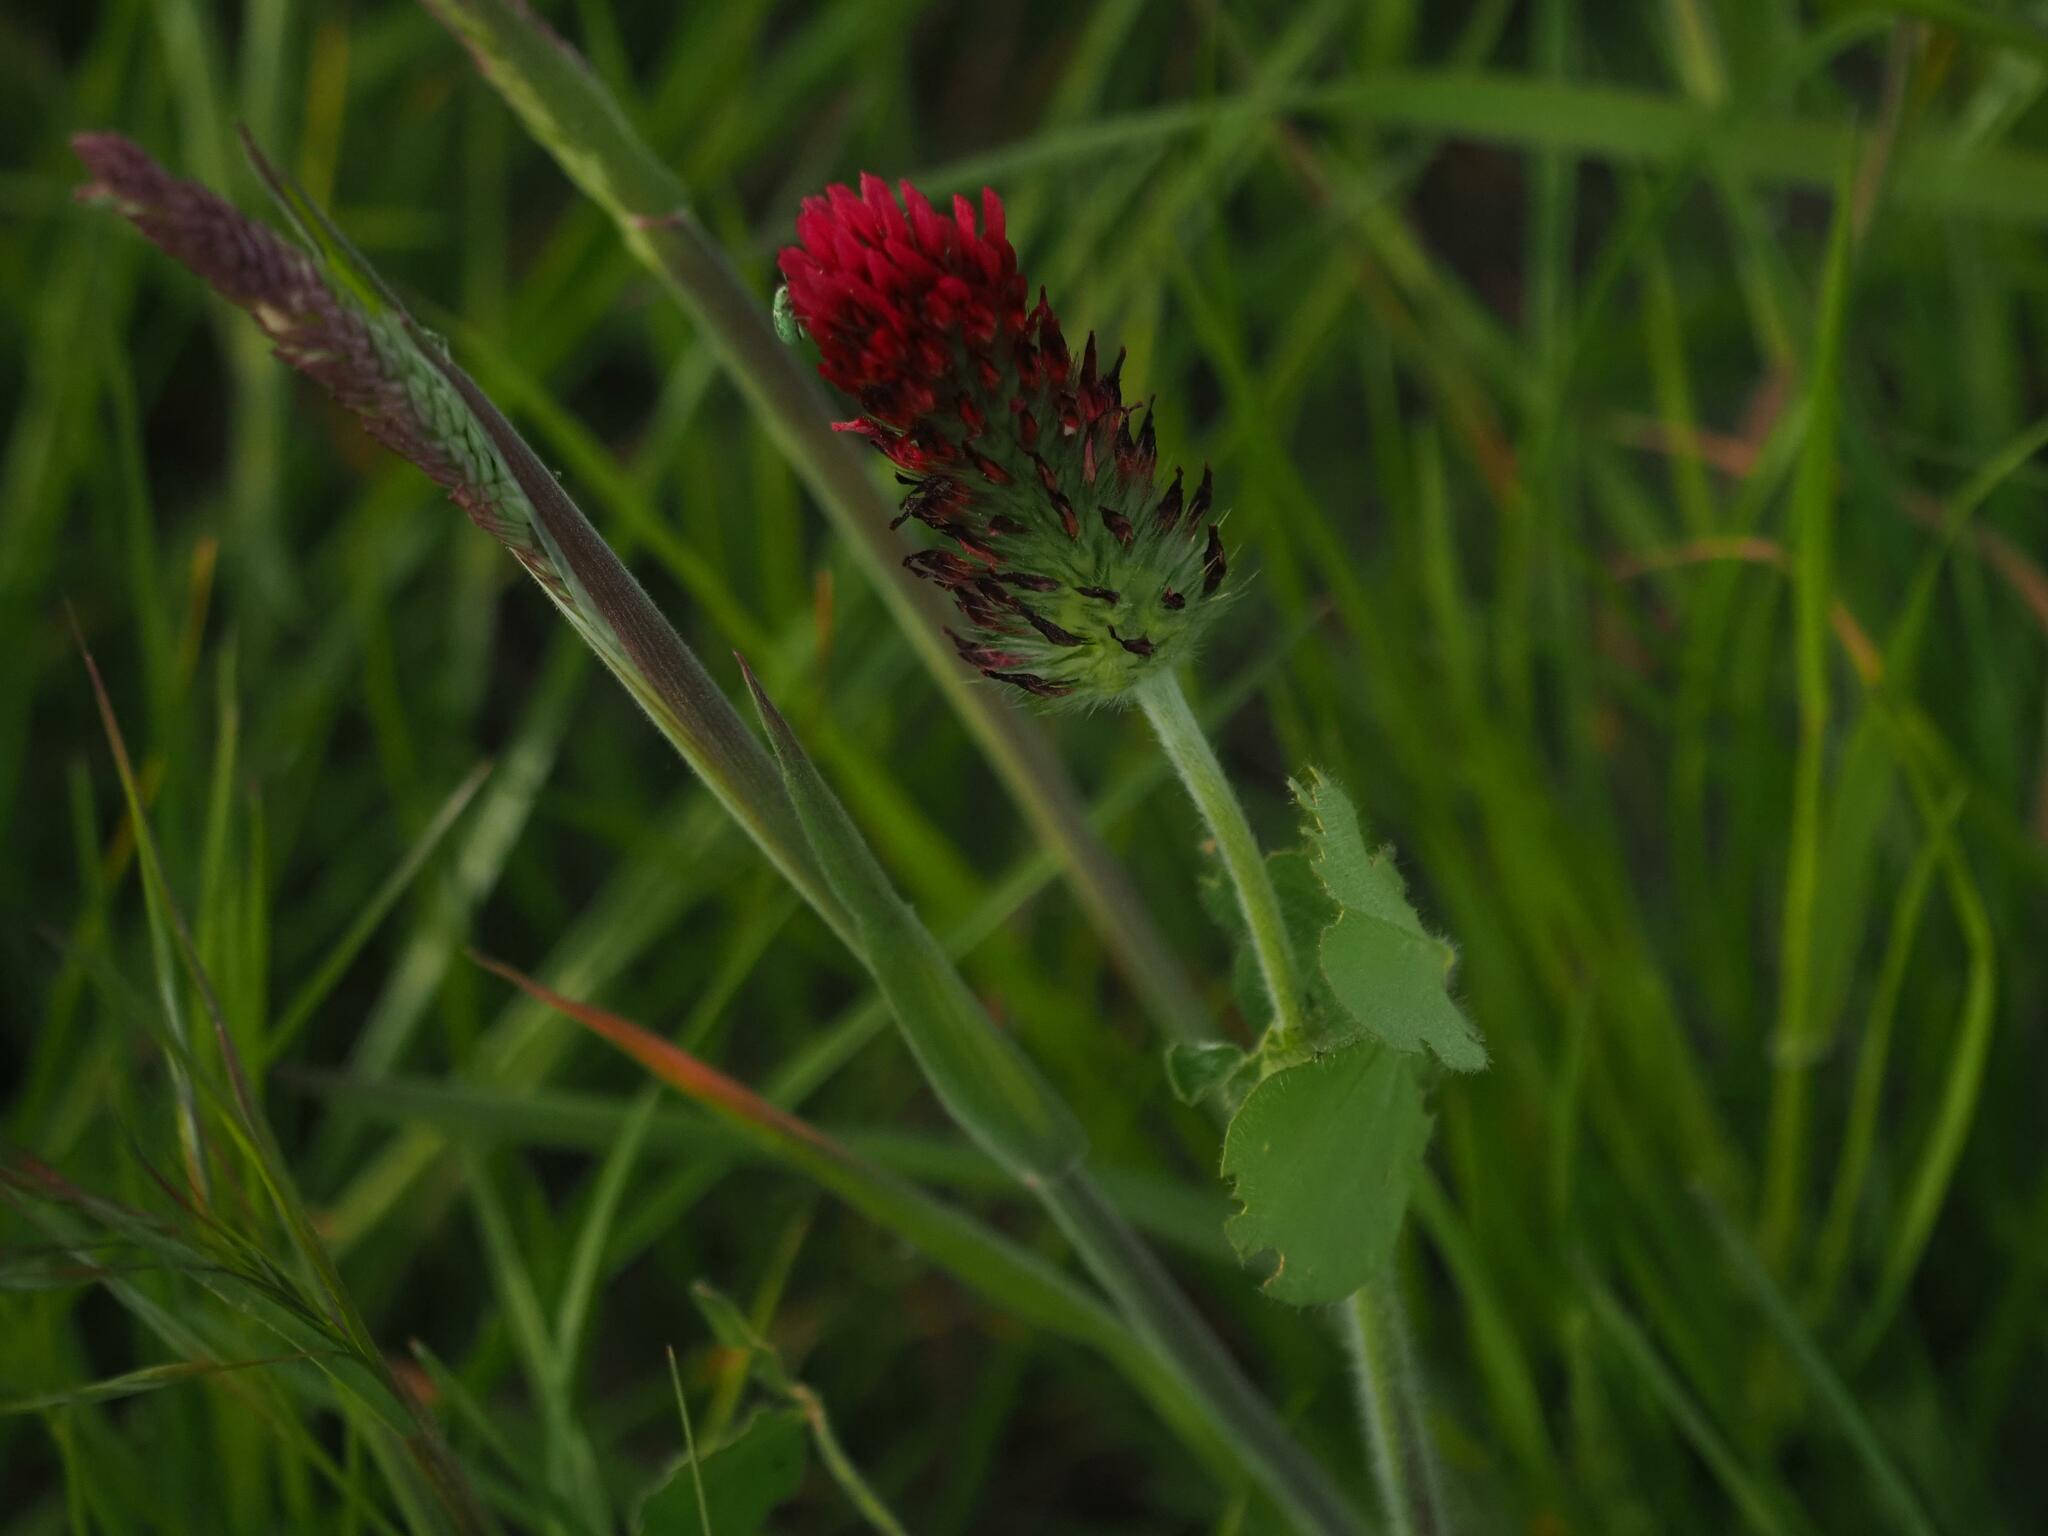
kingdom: Plantae
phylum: Tracheophyta
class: Magnoliopsida
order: Fabales
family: Fabaceae
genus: Trifolium
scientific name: Trifolium incarnatum
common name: Crimson clover
